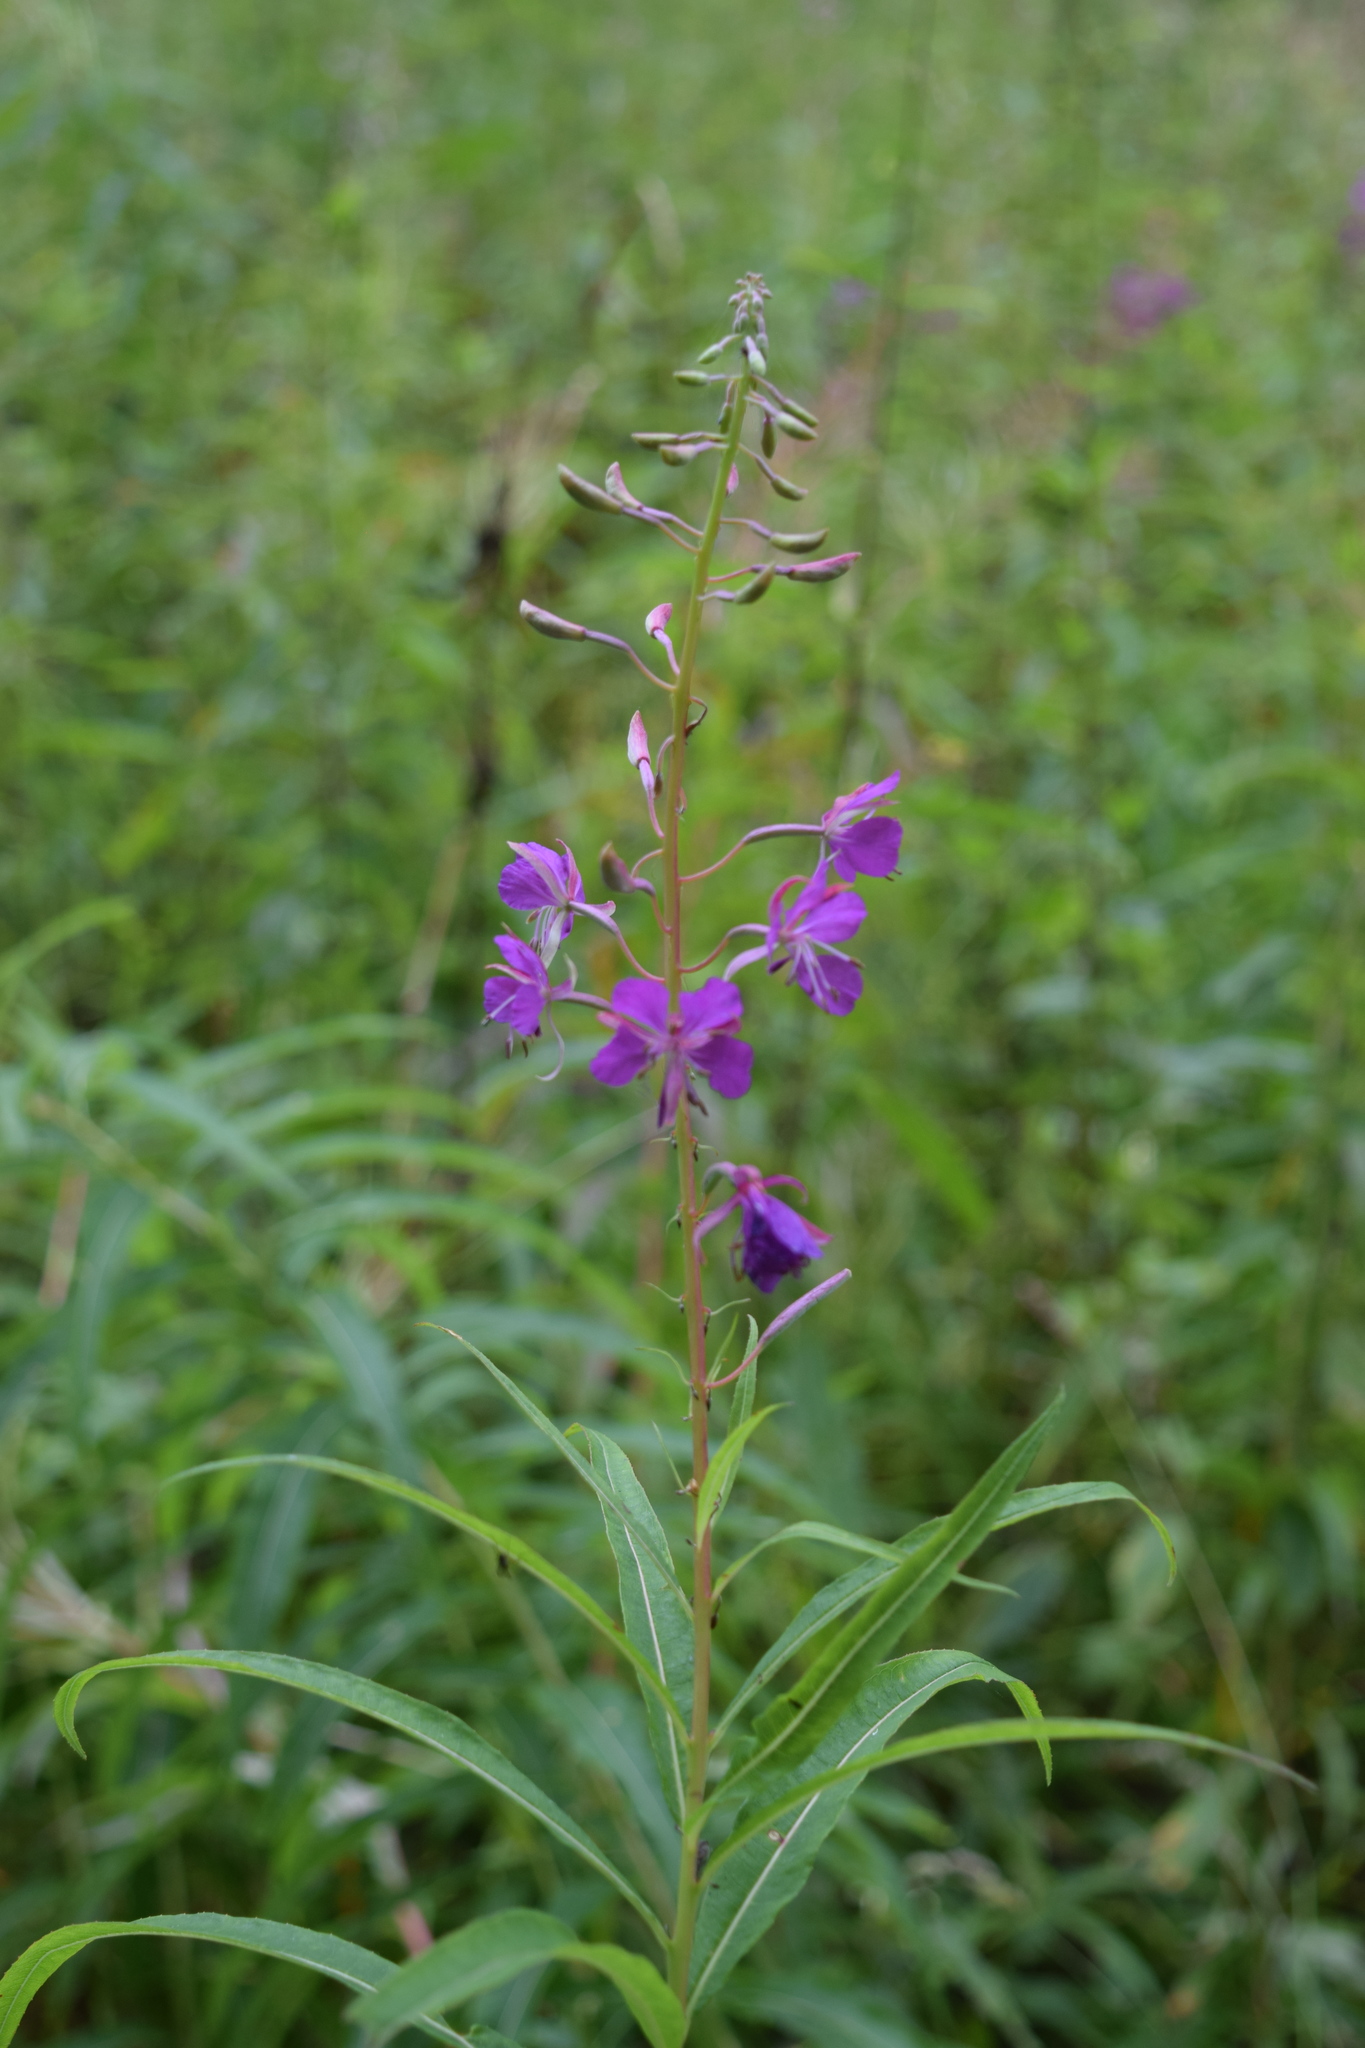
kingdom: Plantae
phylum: Tracheophyta
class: Magnoliopsida
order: Myrtales
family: Onagraceae
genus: Chamaenerion
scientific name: Chamaenerion angustifolium
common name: Fireweed
